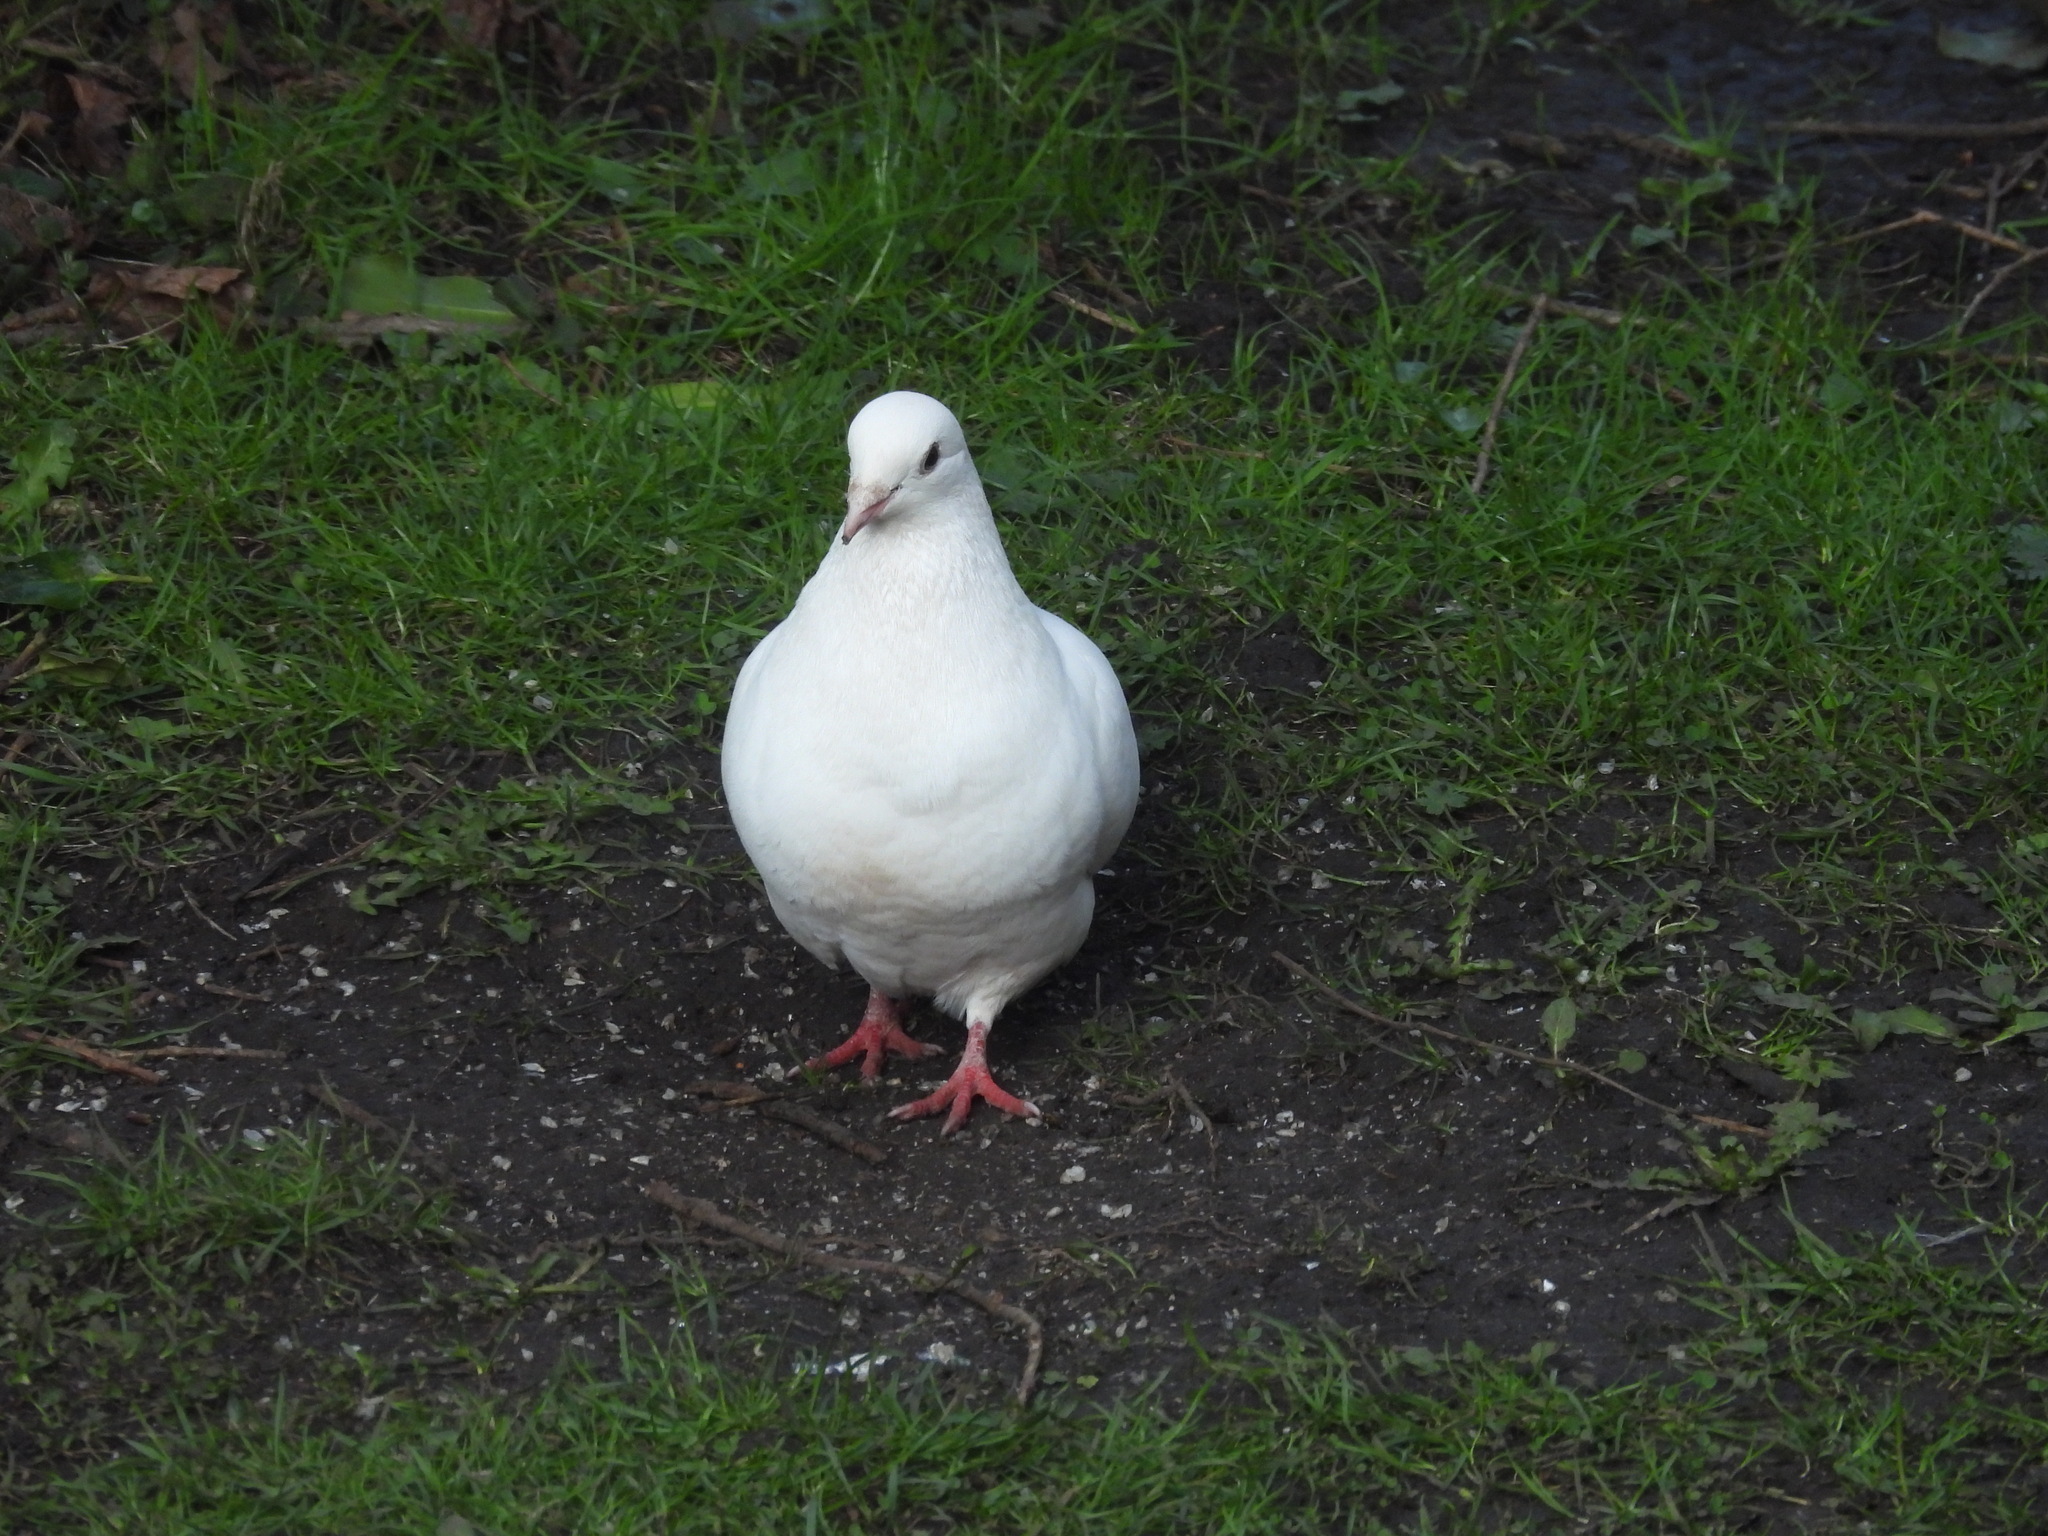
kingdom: Animalia
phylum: Chordata
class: Aves
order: Columbiformes
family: Columbidae
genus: Columba
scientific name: Columba livia
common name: Rock pigeon
